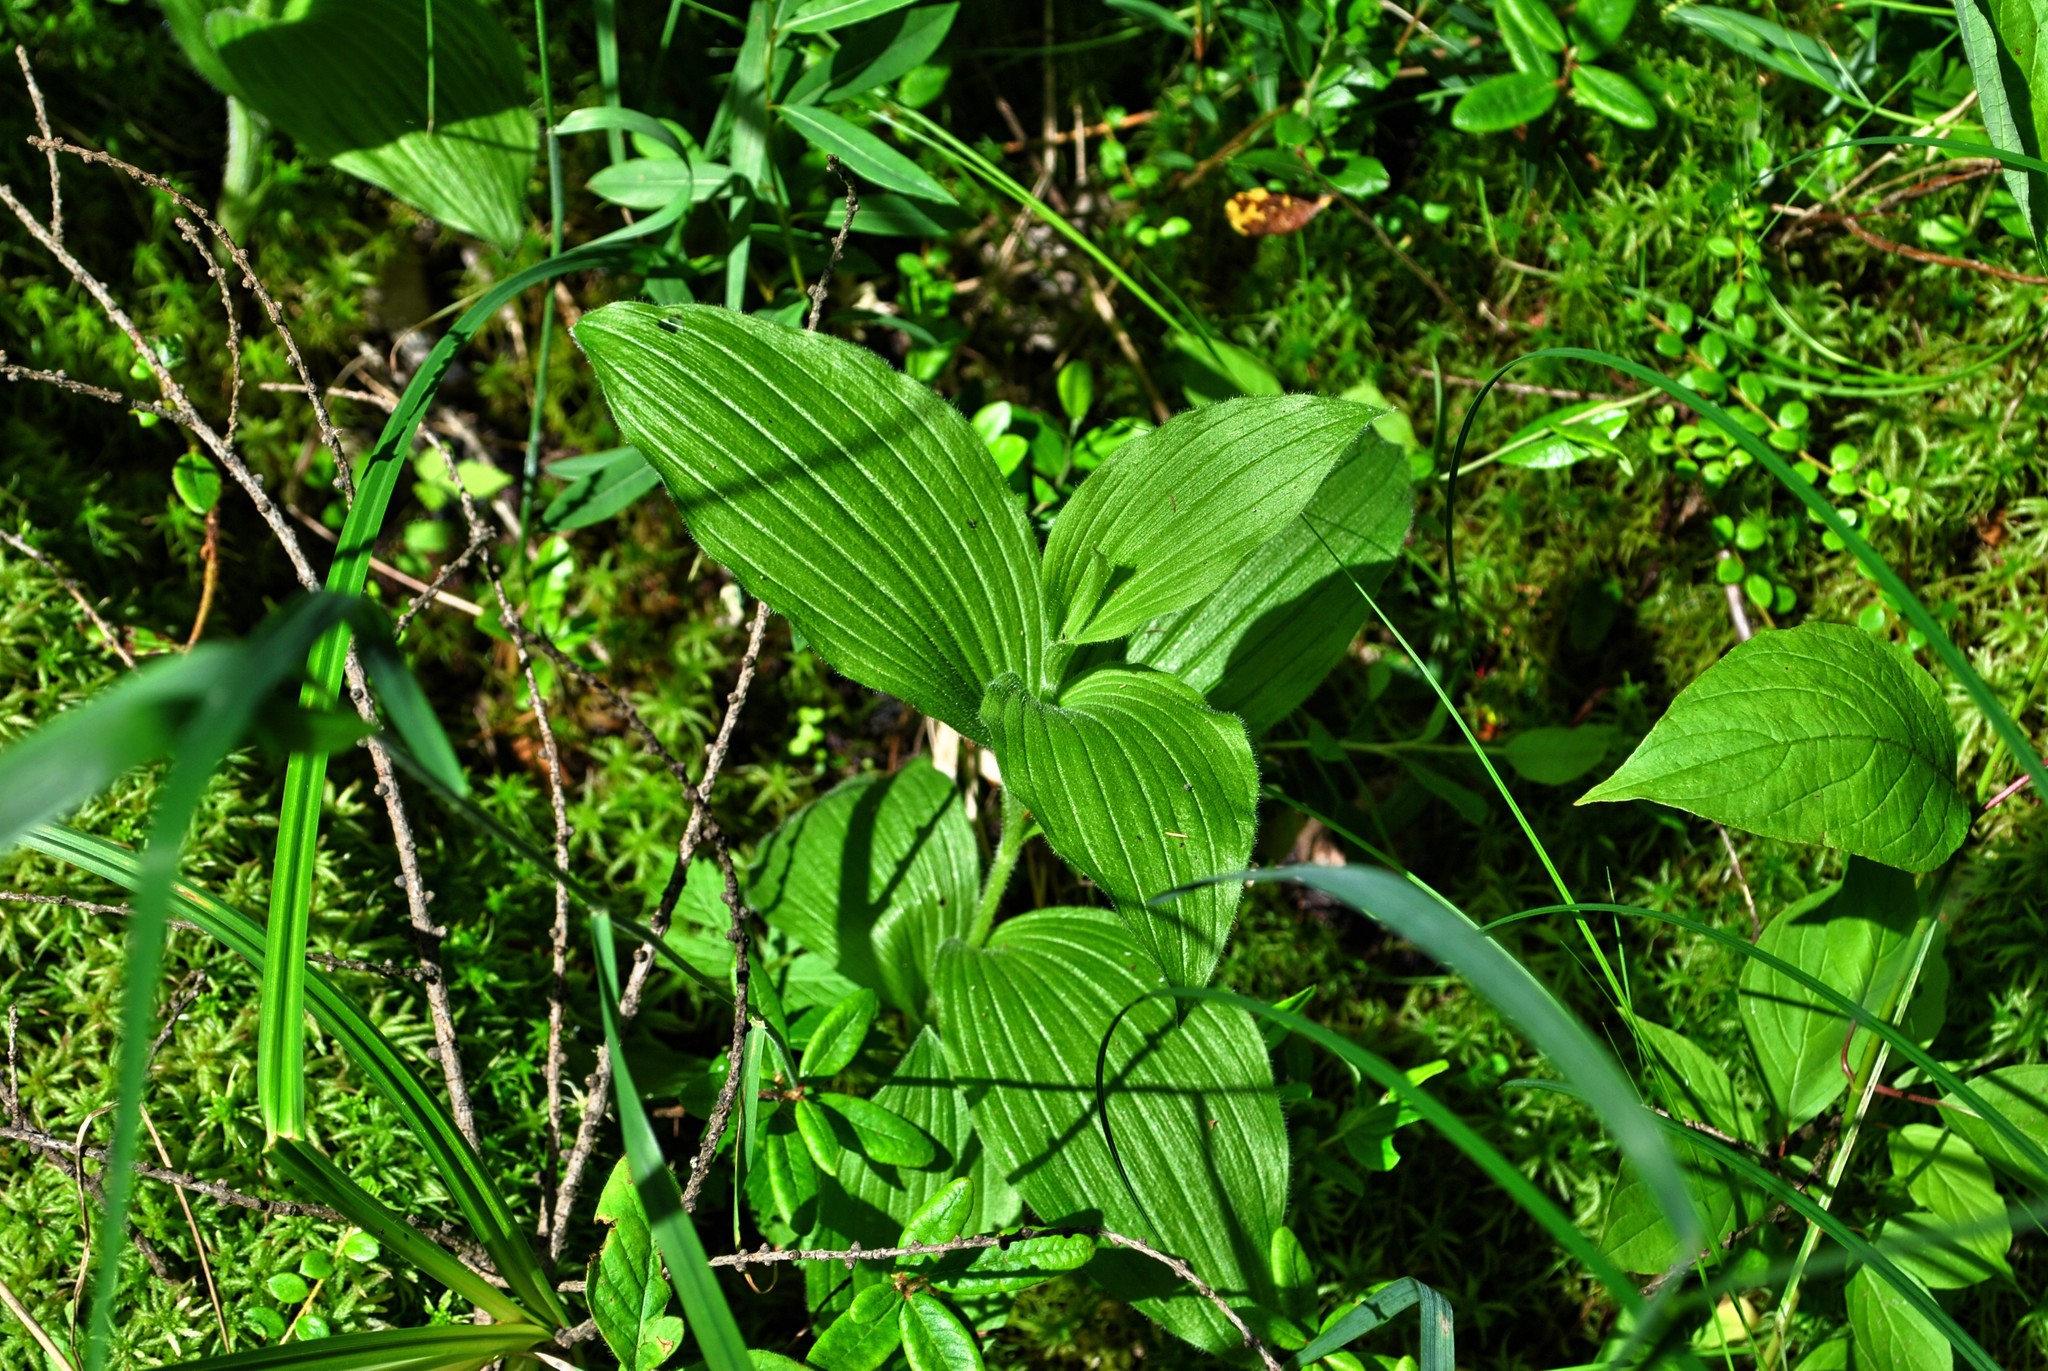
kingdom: Plantae
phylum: Tracheophyta
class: Liliopsida
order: Asparagales
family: Orchidaceae
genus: Cypripedium
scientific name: Cypripedium reginae
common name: Queen lady's-slipper
